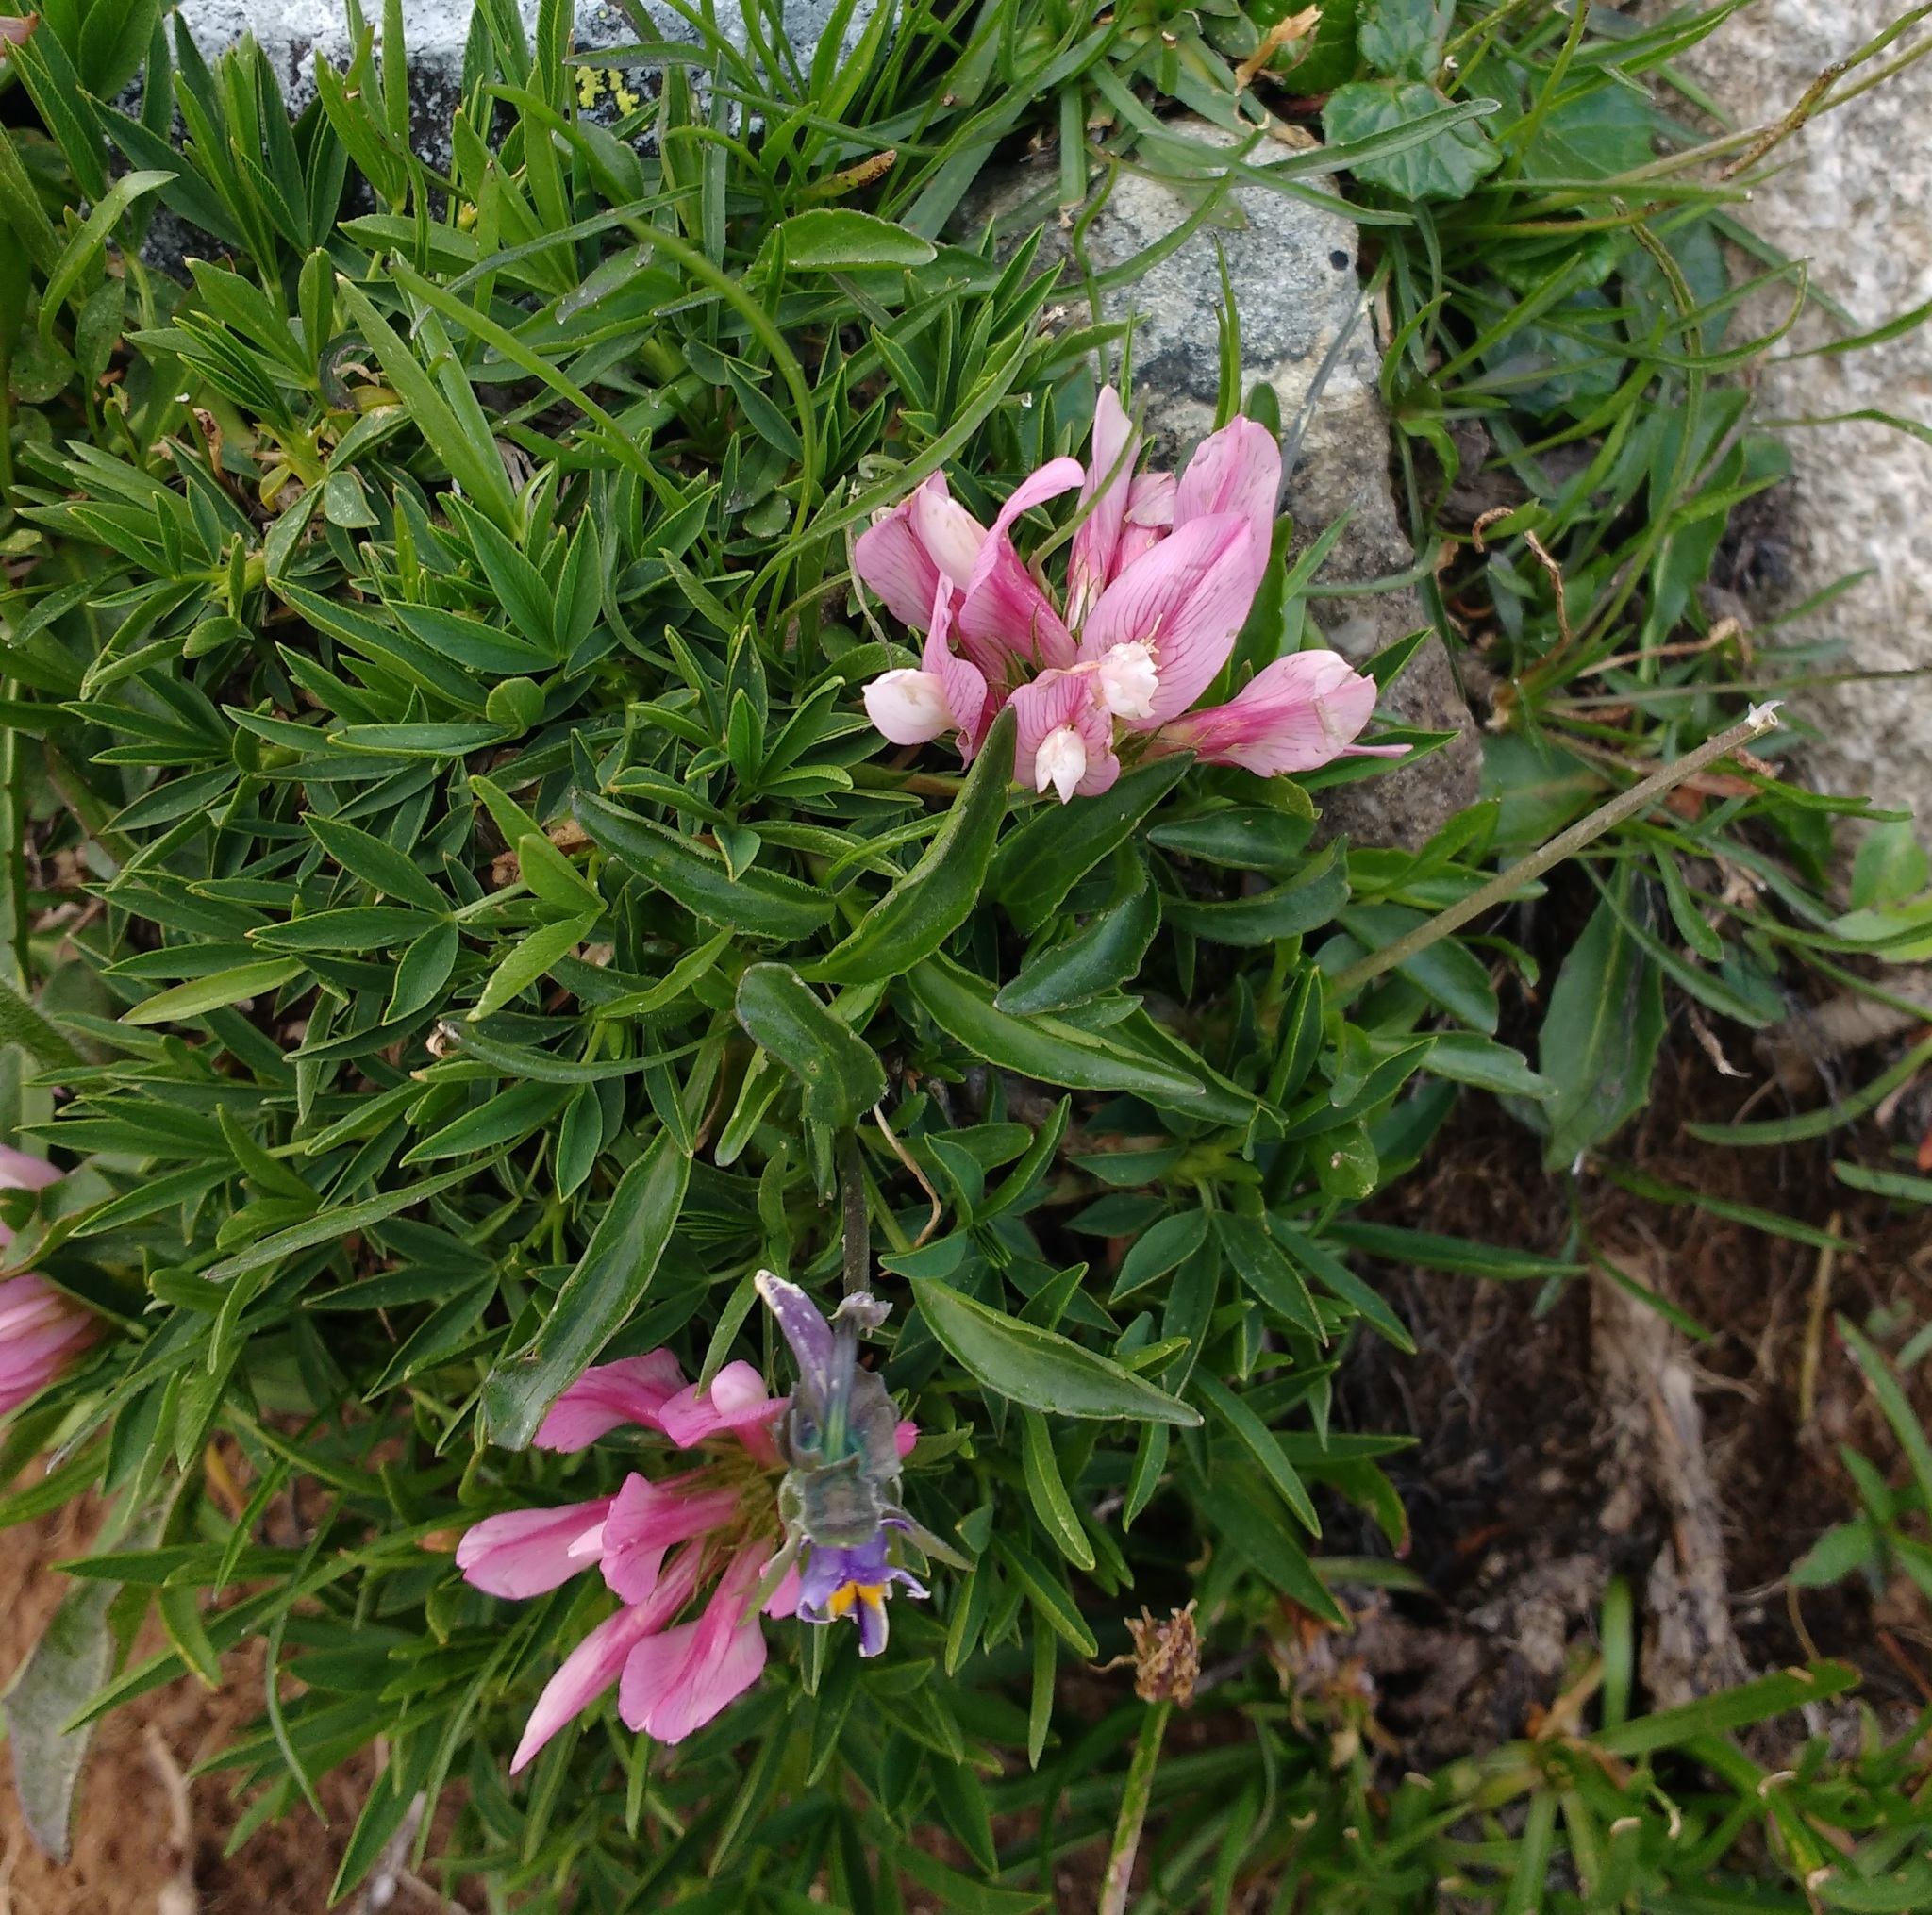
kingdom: Plantae
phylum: Tracheophyta
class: Magnoliopsida
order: Fabales
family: Fabaceae
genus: Trifolium
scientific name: Trifolium alpinum
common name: Alpine clover
